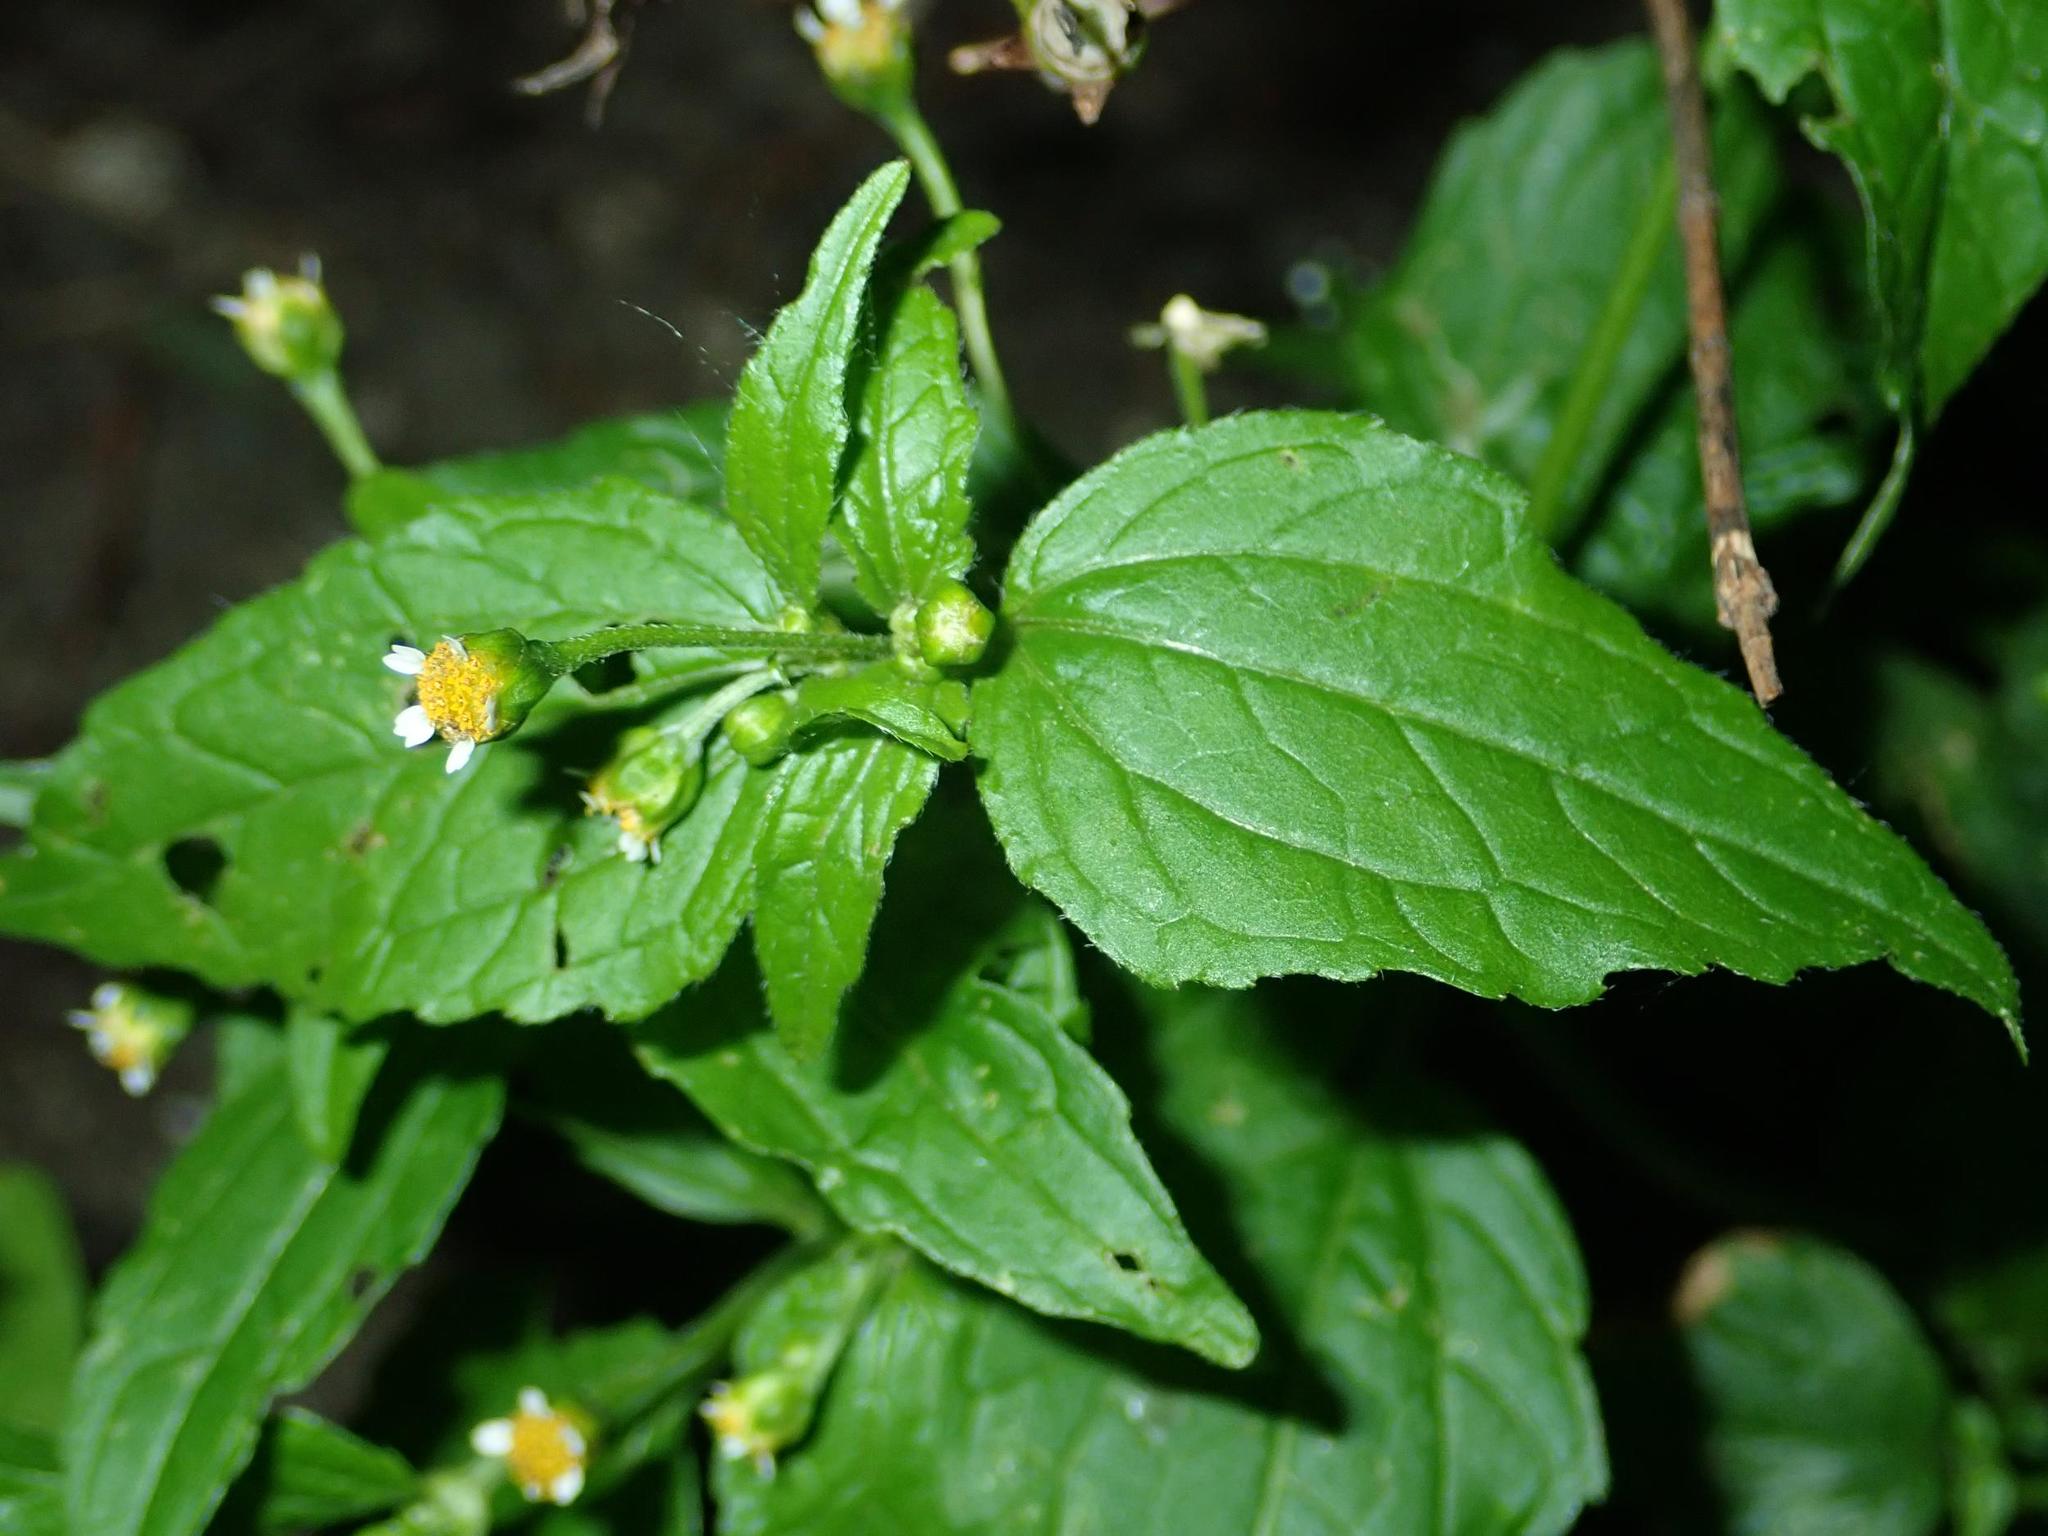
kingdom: Plantae
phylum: Tracheophyta
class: Magnoliopsida
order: Asterales
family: Asteraceae
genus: Galinsoga
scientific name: Galinsoga parviflora
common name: Gallant soldier
